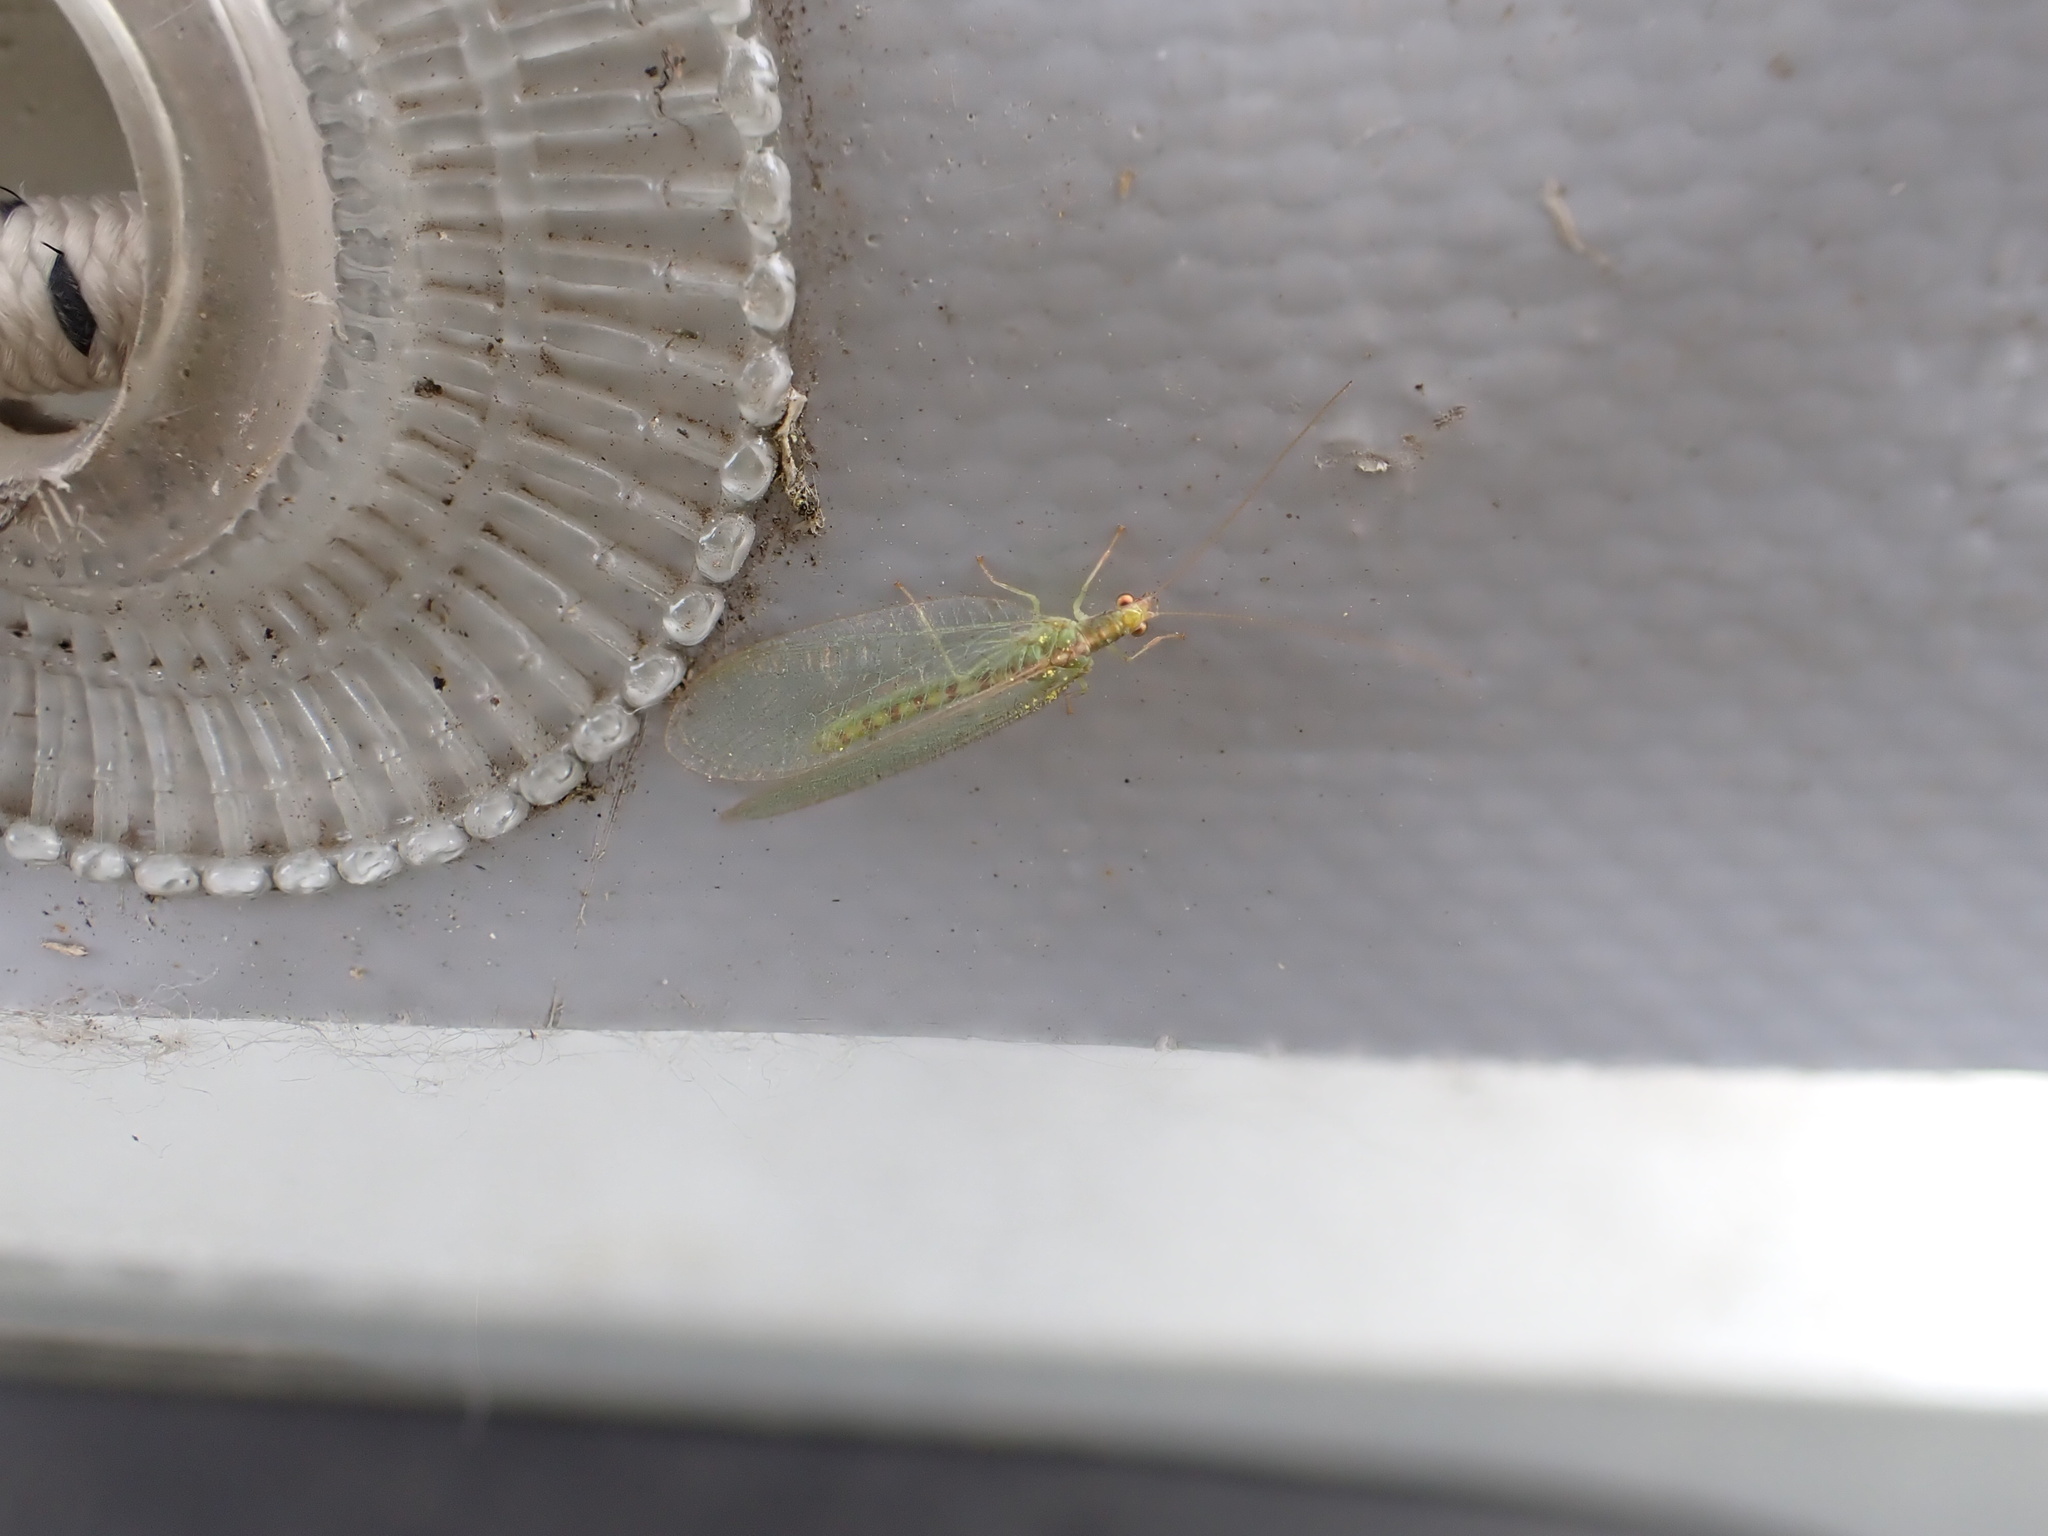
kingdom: Animalia
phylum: Arthropoda
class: Insecta
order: Neuroptera
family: Chrysopidae
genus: Chrysoperla
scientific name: Chrysoperla
